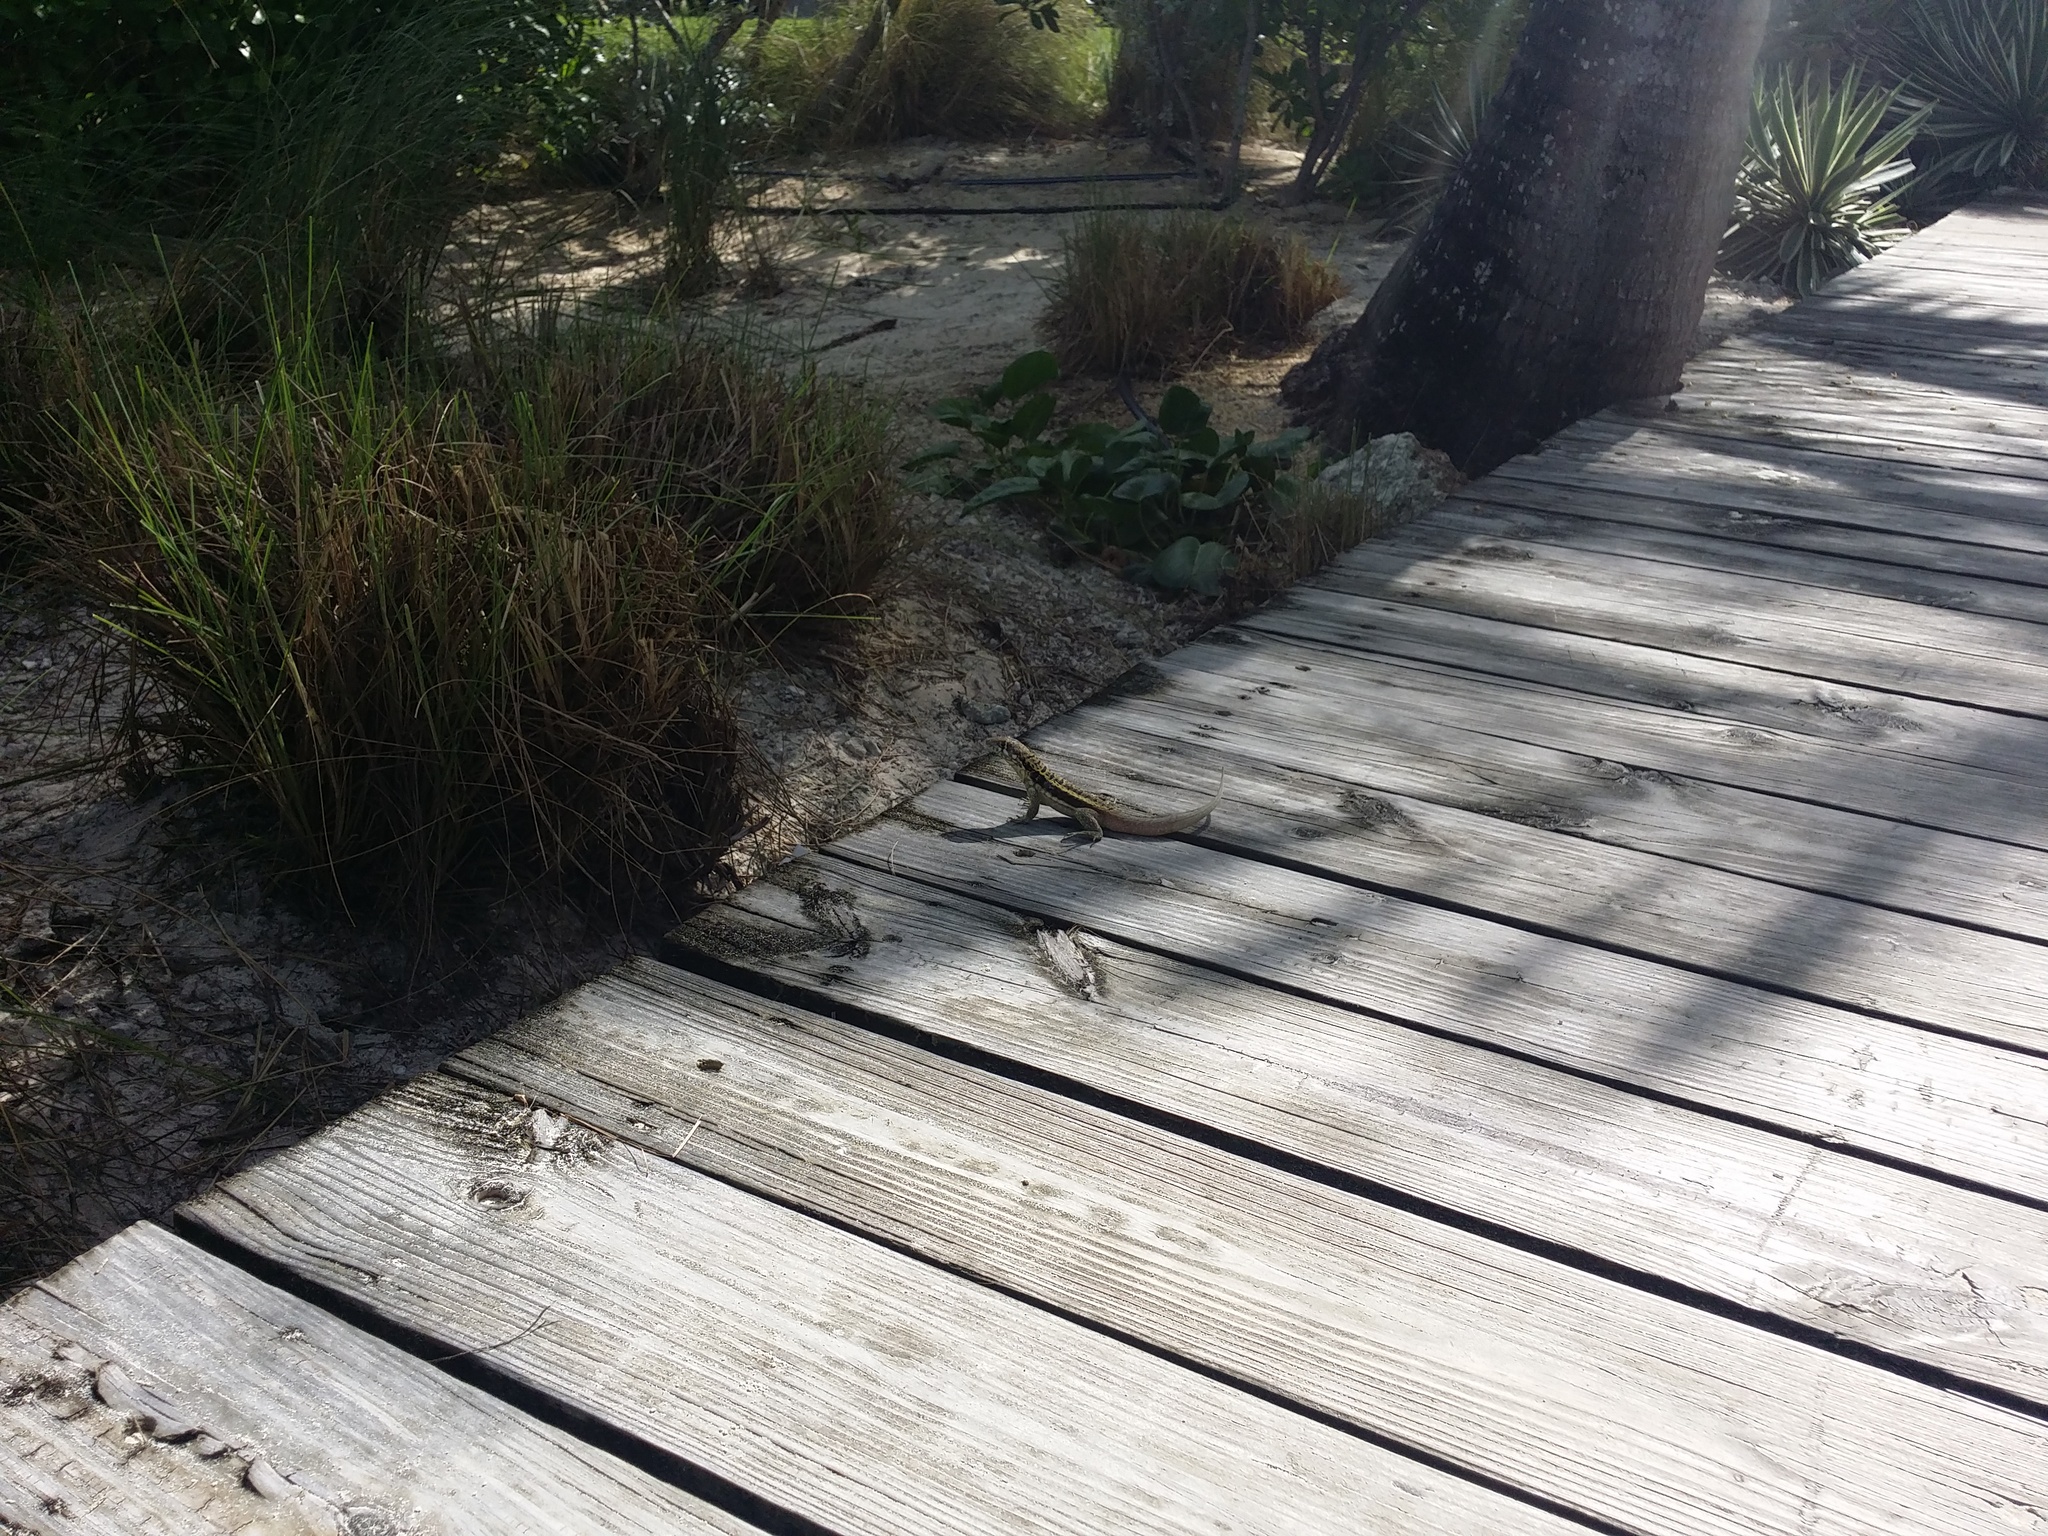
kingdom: Animalia
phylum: Chordata
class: Squamata
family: Leiocephalidae
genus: Leiocephalus
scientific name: Leiocephalus psammodromus
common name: Bastion cay curlytail lizard
